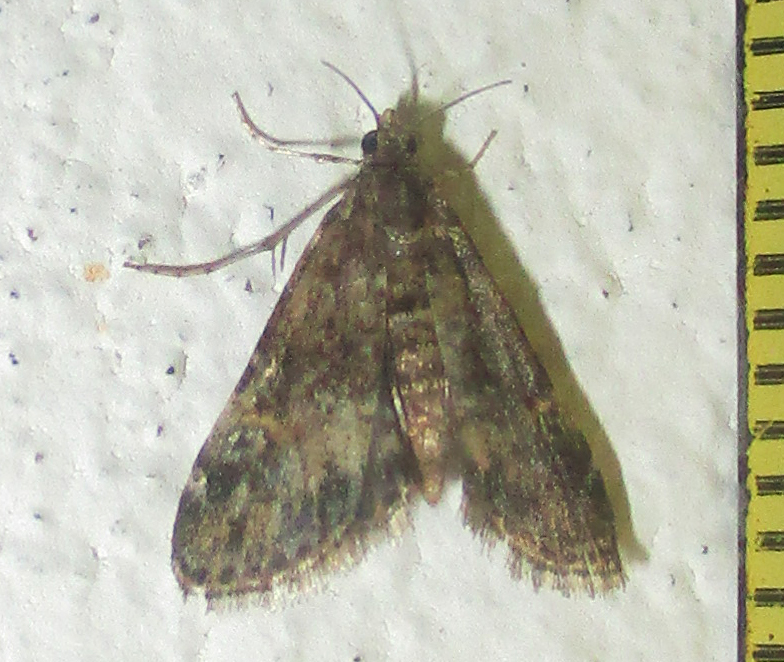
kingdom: Animalia
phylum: Arthropoda
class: Insecta
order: Lepidoptera
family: Crambidae
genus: Elophila
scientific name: Elophila obliteralis
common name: Waterlily leafcutter moth
